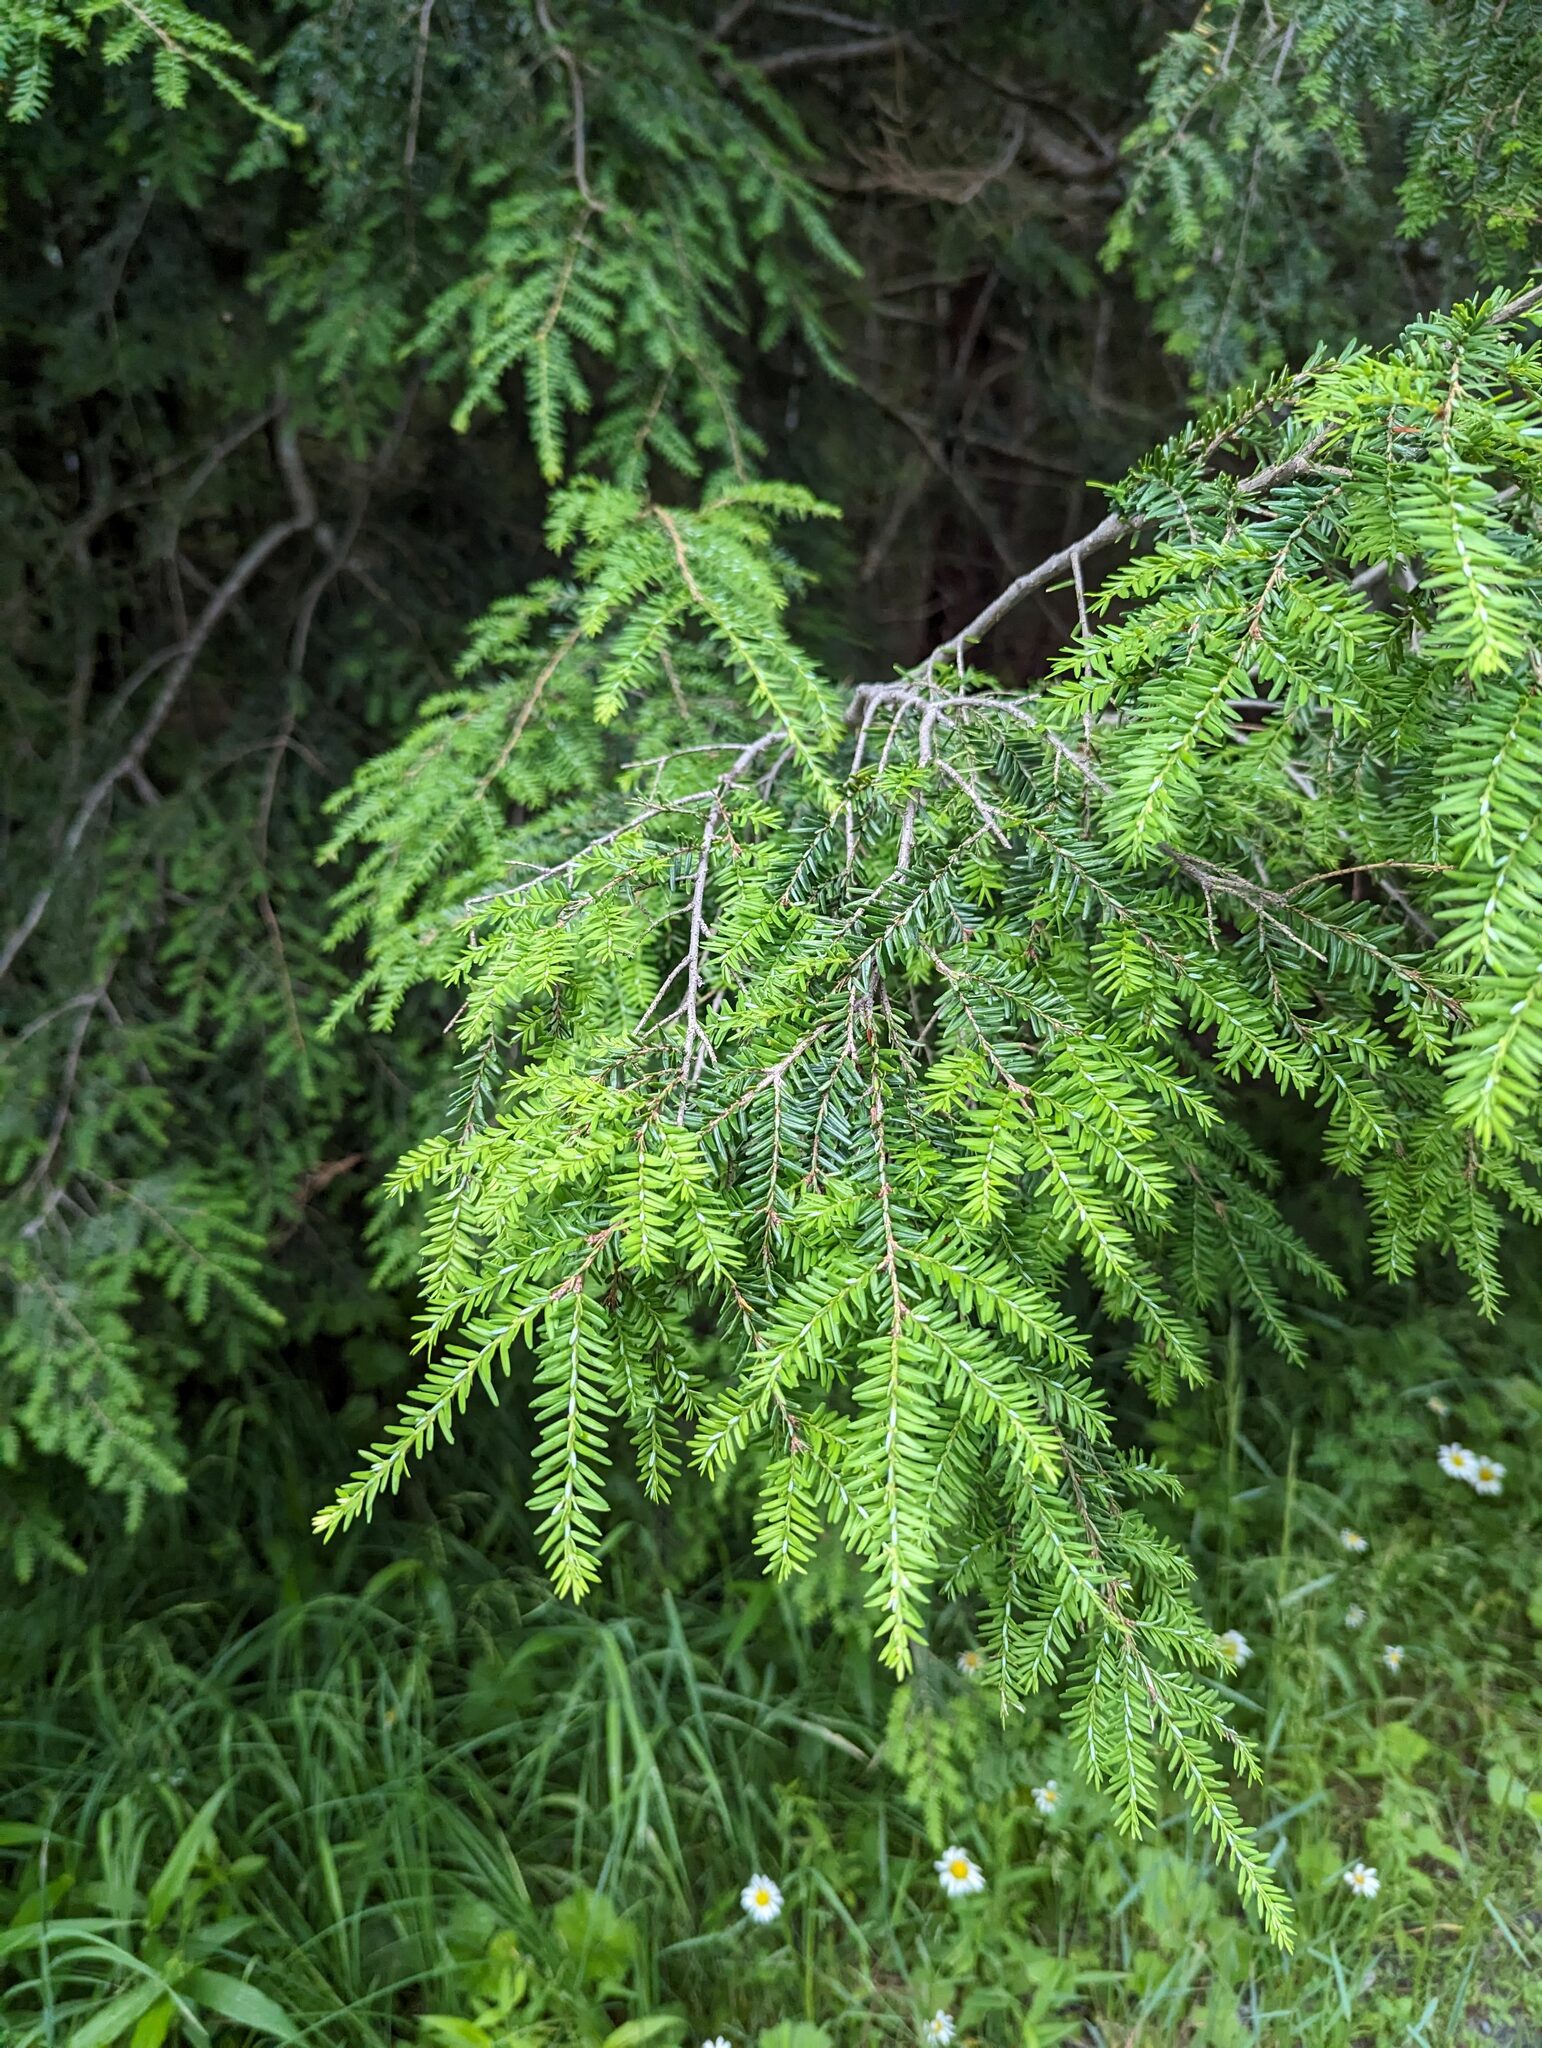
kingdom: Plantae
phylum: Tracheophyta
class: Pinopsida
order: Pinales
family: Pinaceae
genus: Tsuga
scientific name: Tsuga canadensis
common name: Eastern hemlock
